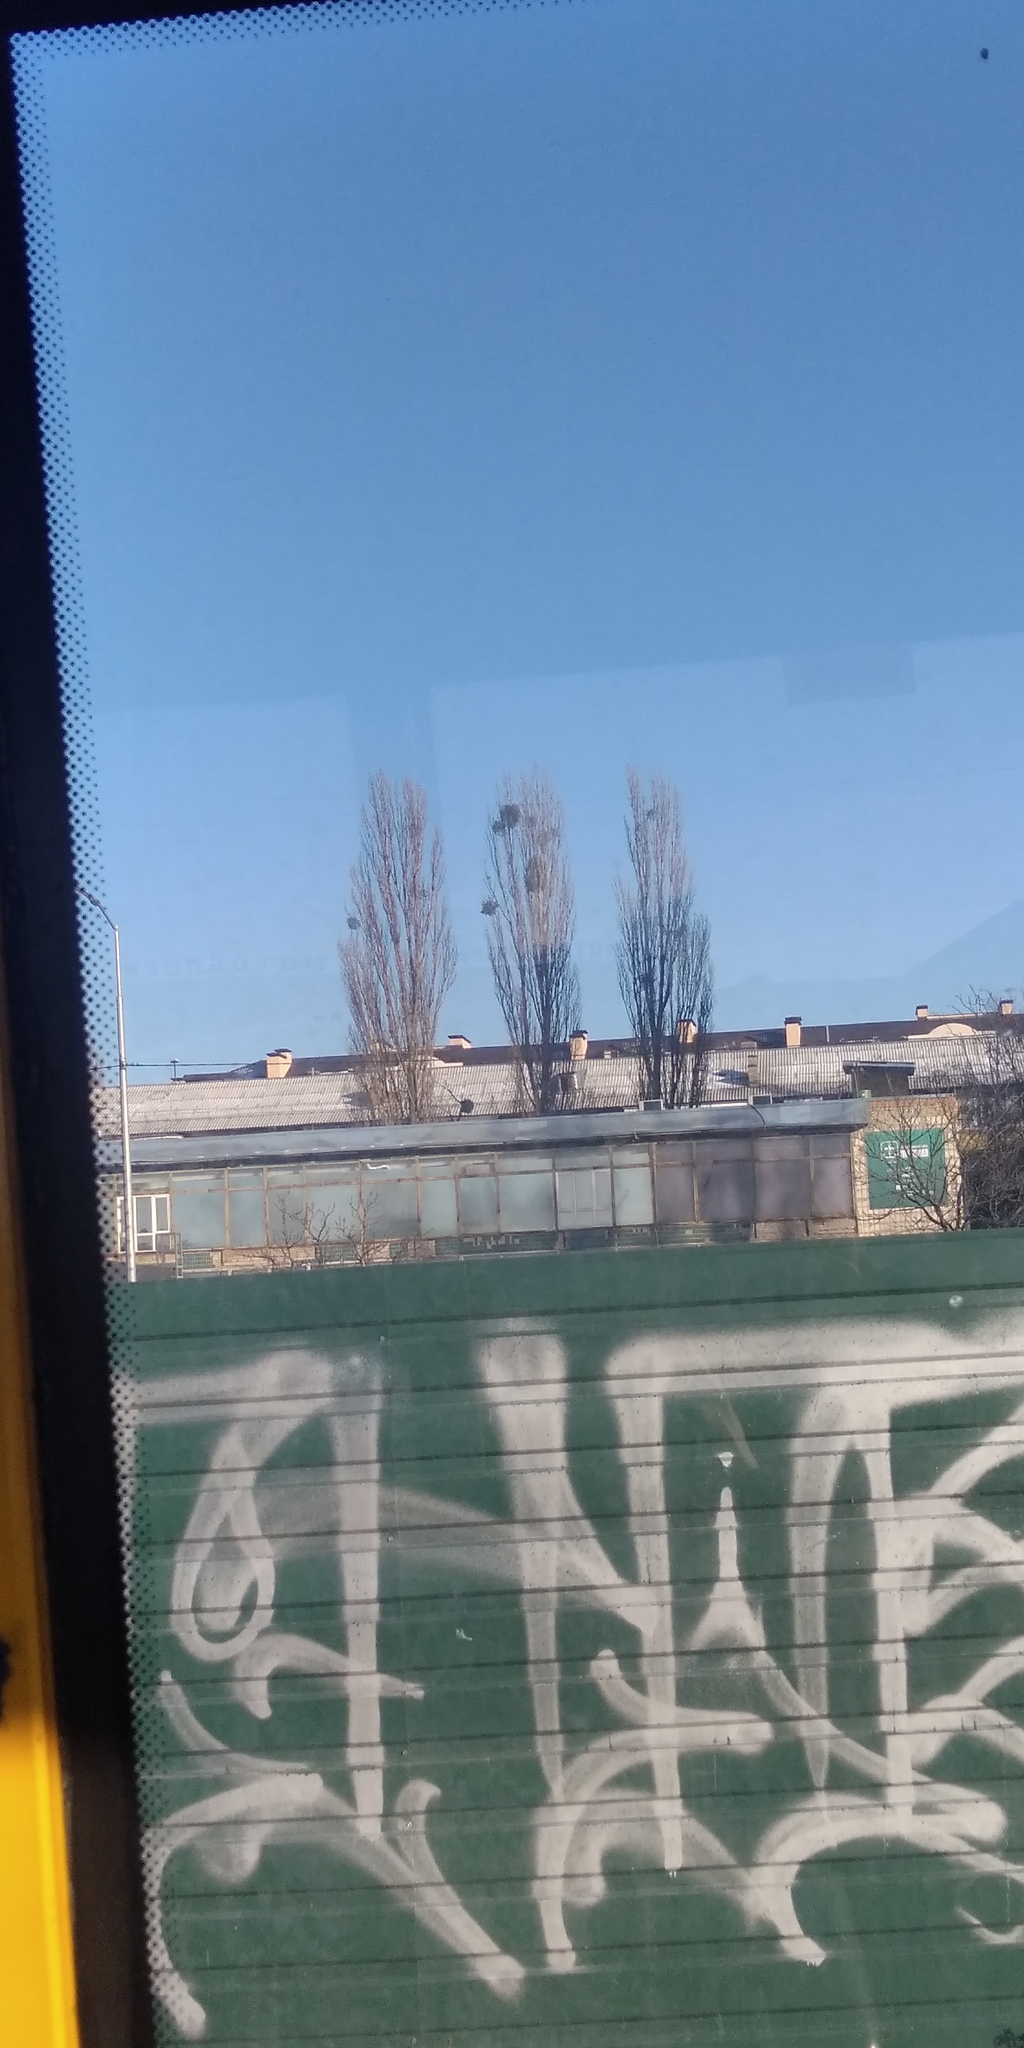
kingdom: Plantae
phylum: Tracheophyta
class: Magnoliopsida
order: Santalales
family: Viscaceae
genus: Viscum
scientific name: Viscum album
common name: Mistletoe
